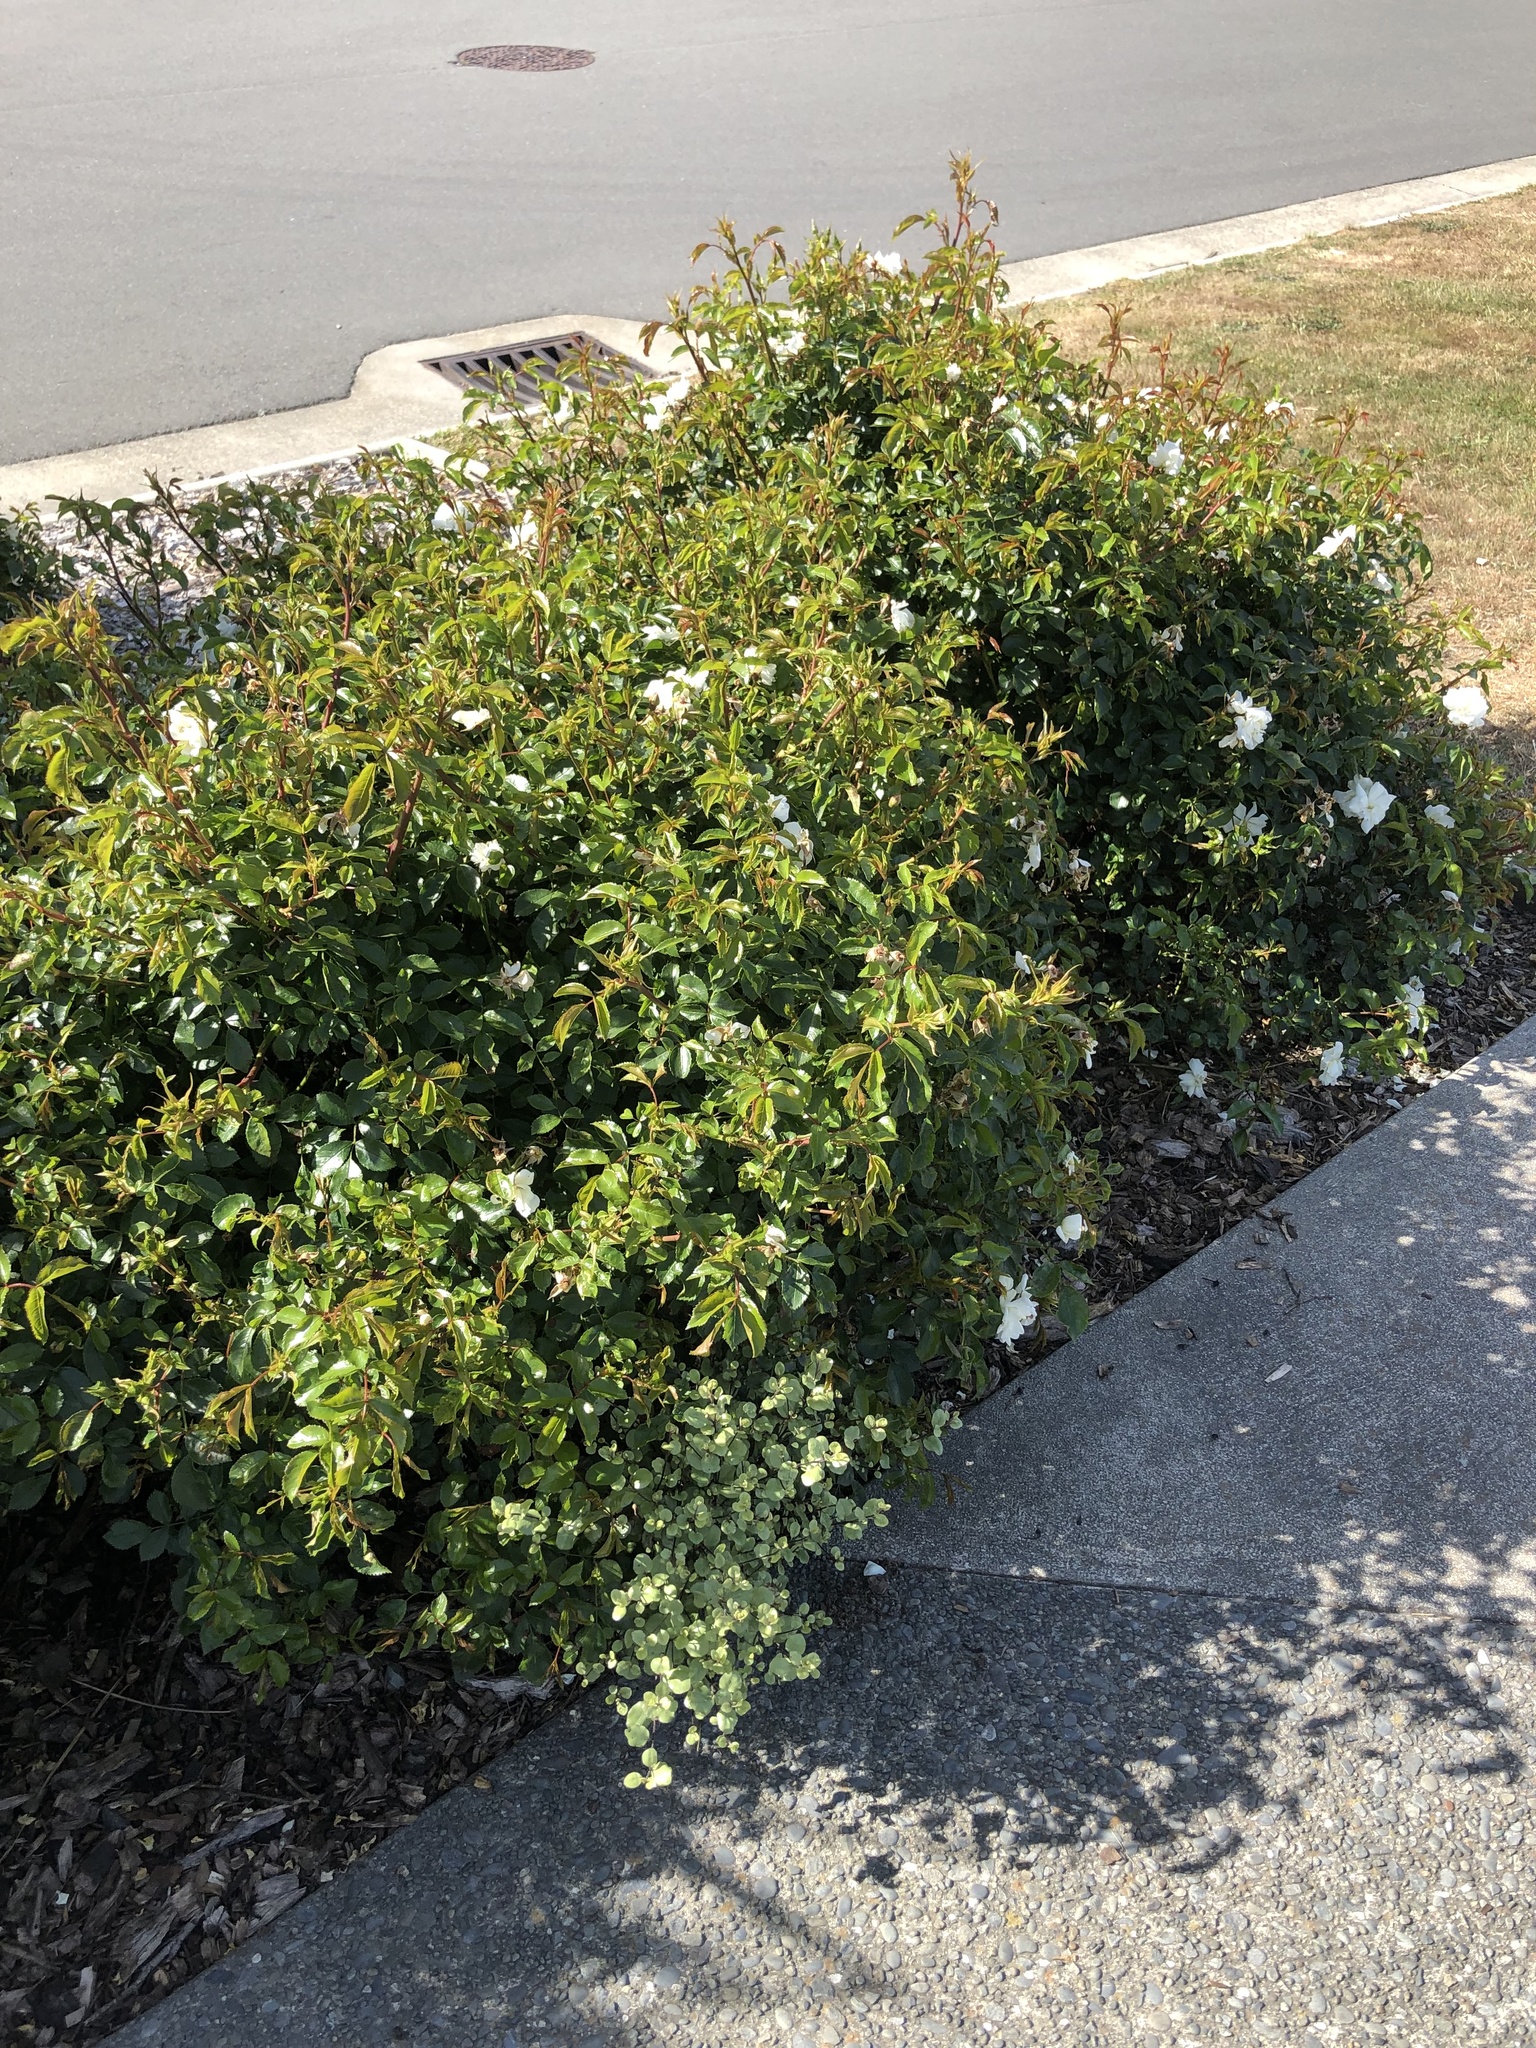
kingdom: Plantae
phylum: Tracheophyta
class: Magnoliopsida
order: Apiales
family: Pittosporaceae
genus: Pittosporum
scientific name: Pittosporum tenuifolium
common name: Kohuhu
